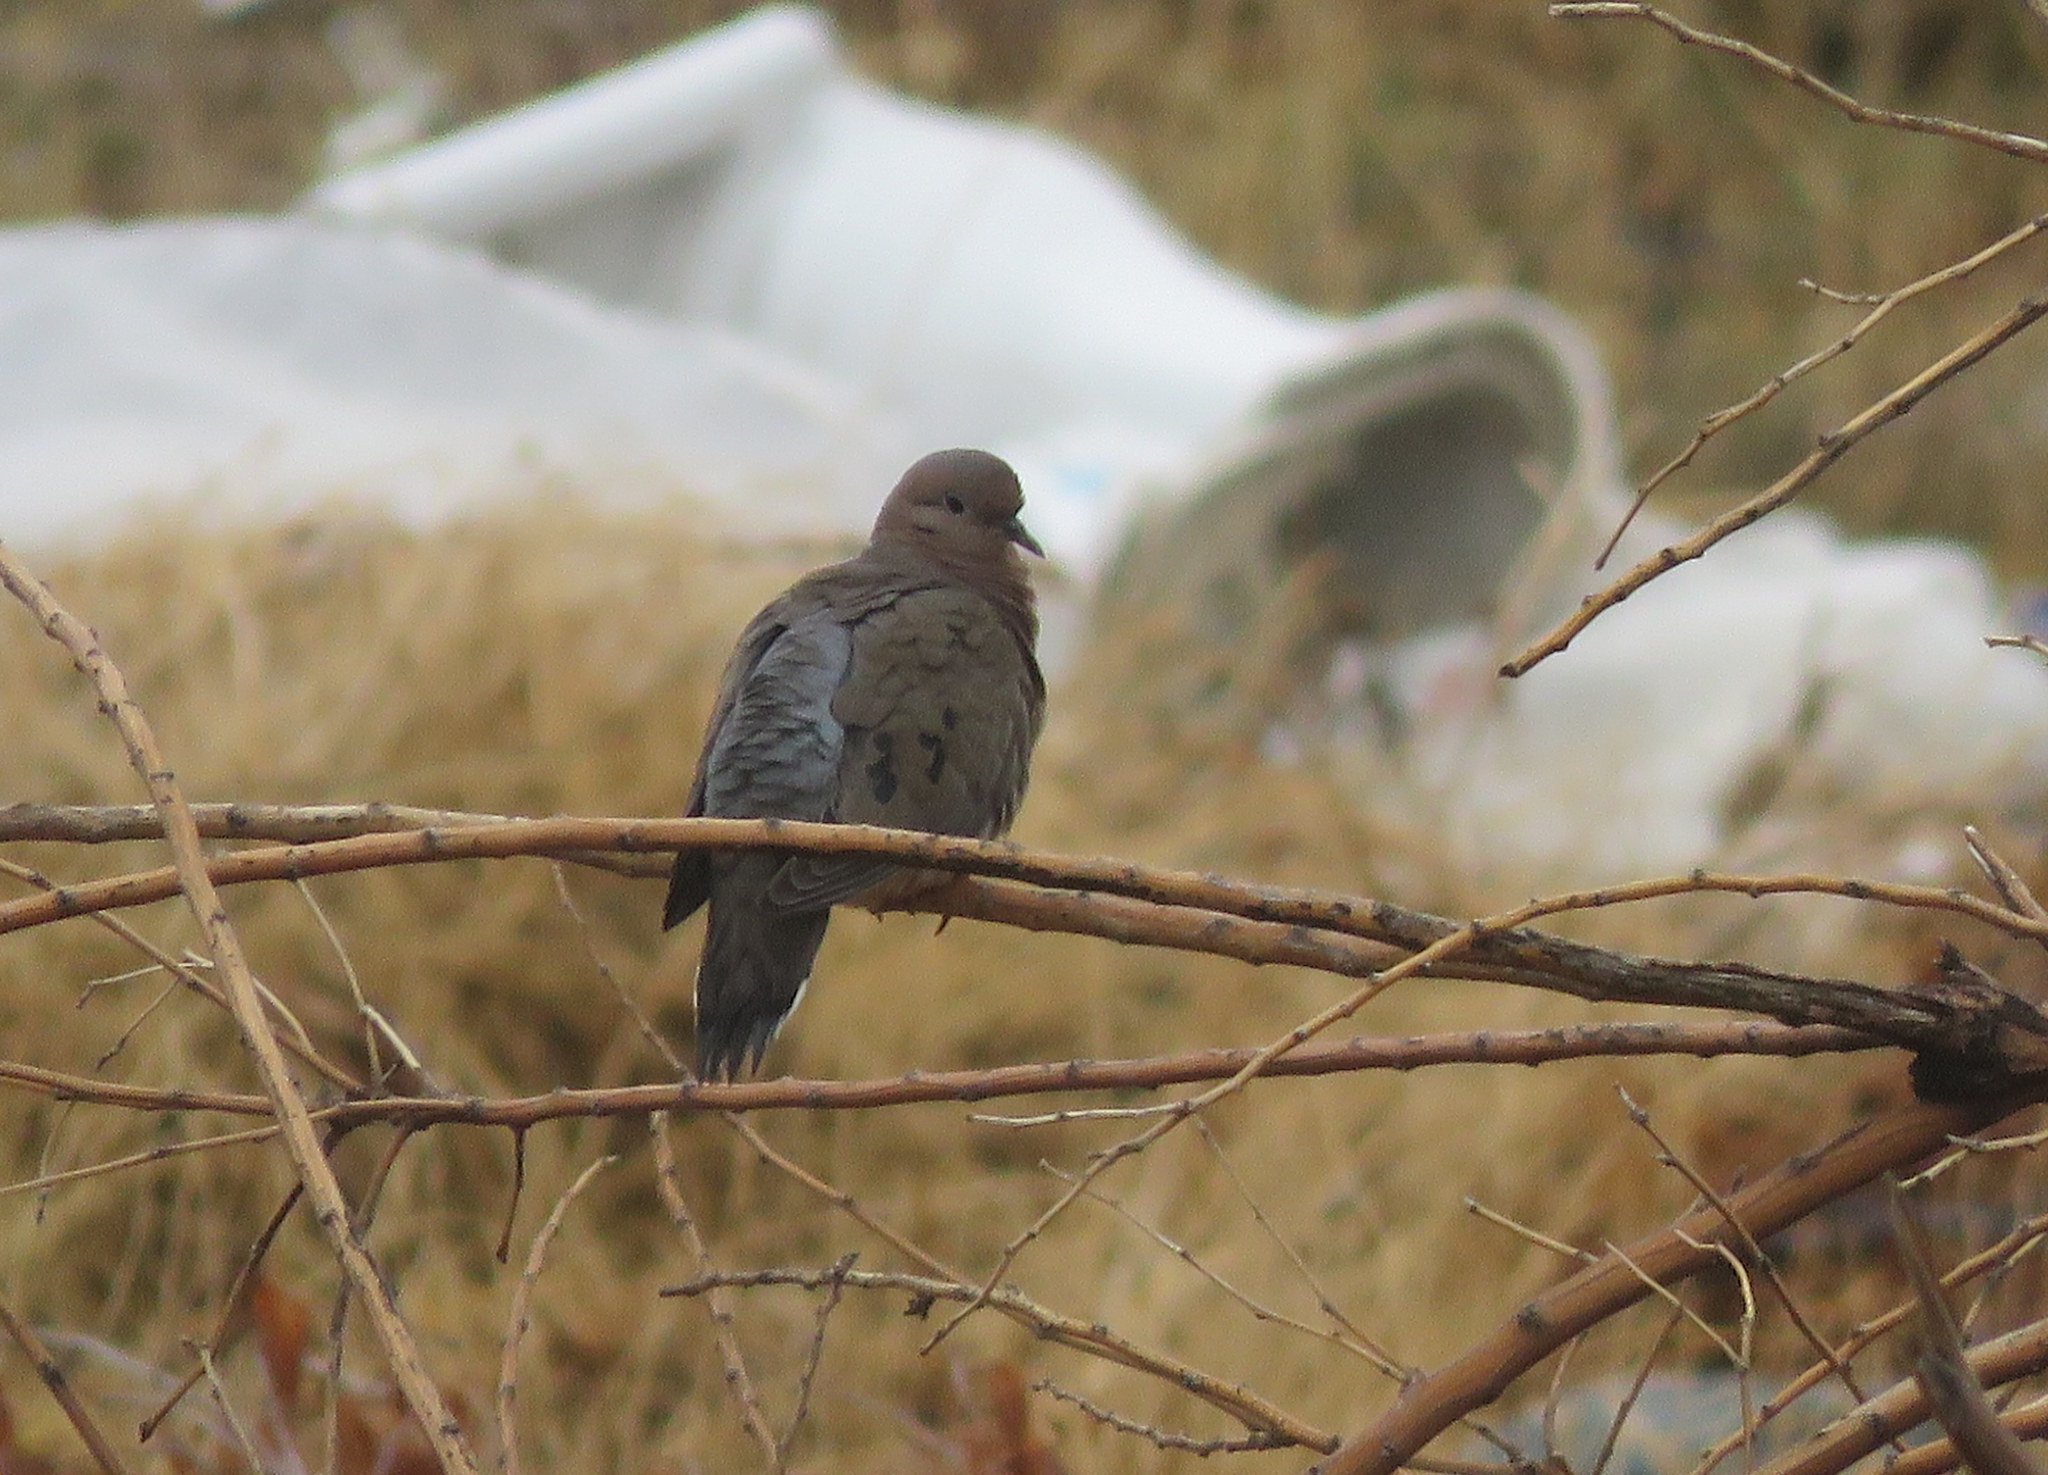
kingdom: Animalia
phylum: Chordata
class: Aves
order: Columbiformes
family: Columbidae
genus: Zenaida
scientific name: Zenaida auriculata
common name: Eared dove
